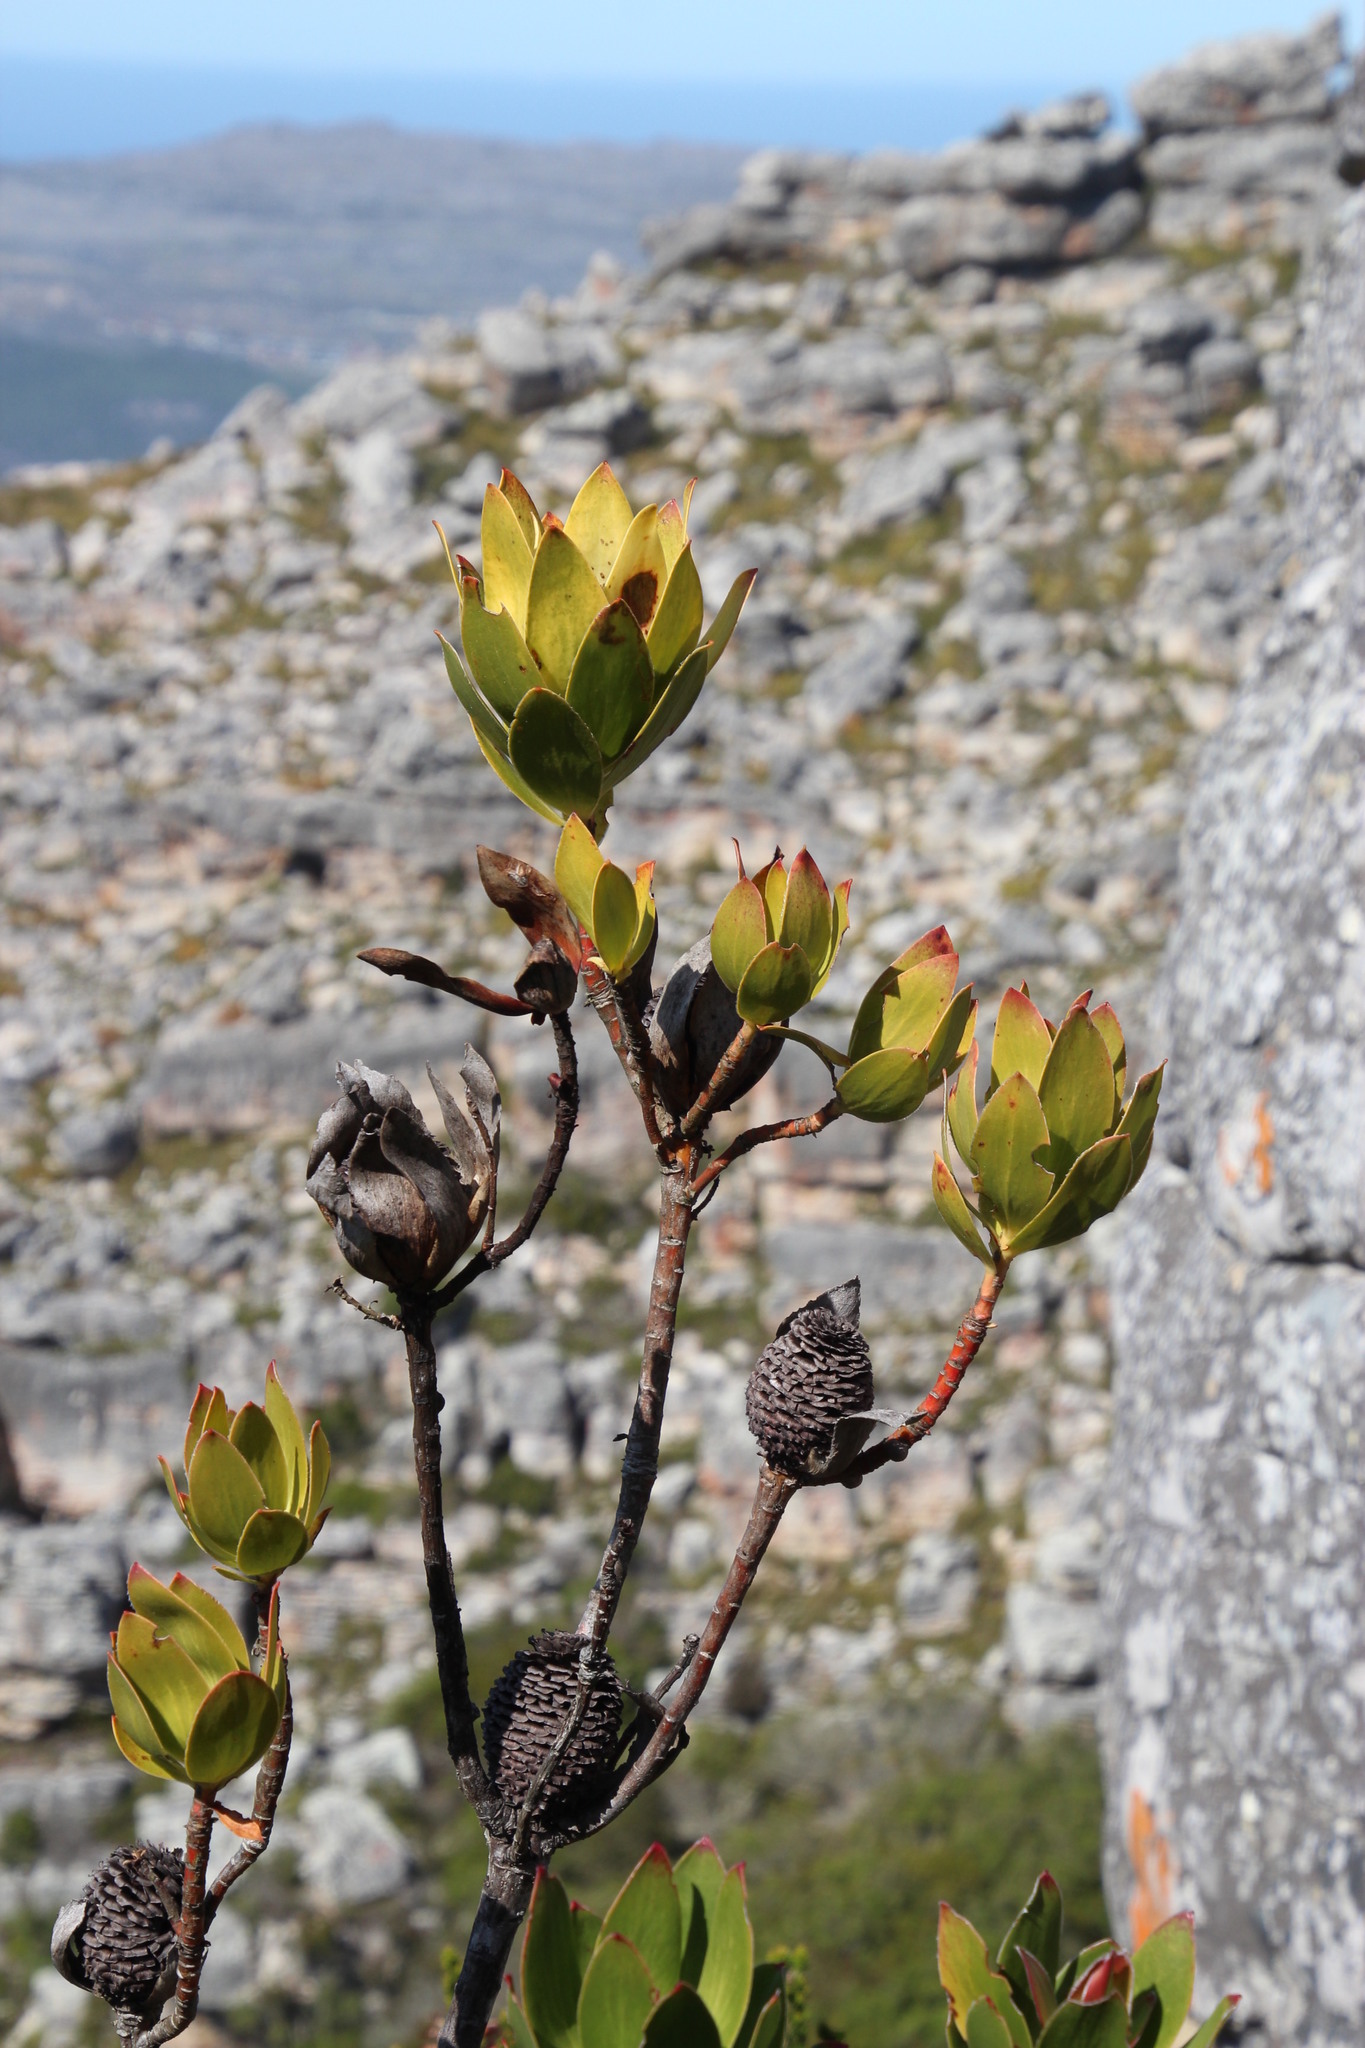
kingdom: Plantae
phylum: Tracheophyta
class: Magnoliopsida
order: Proteales
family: Proteaceae
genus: Leucadendron
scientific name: Leucadendron strobilinum
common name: Mountain rose
